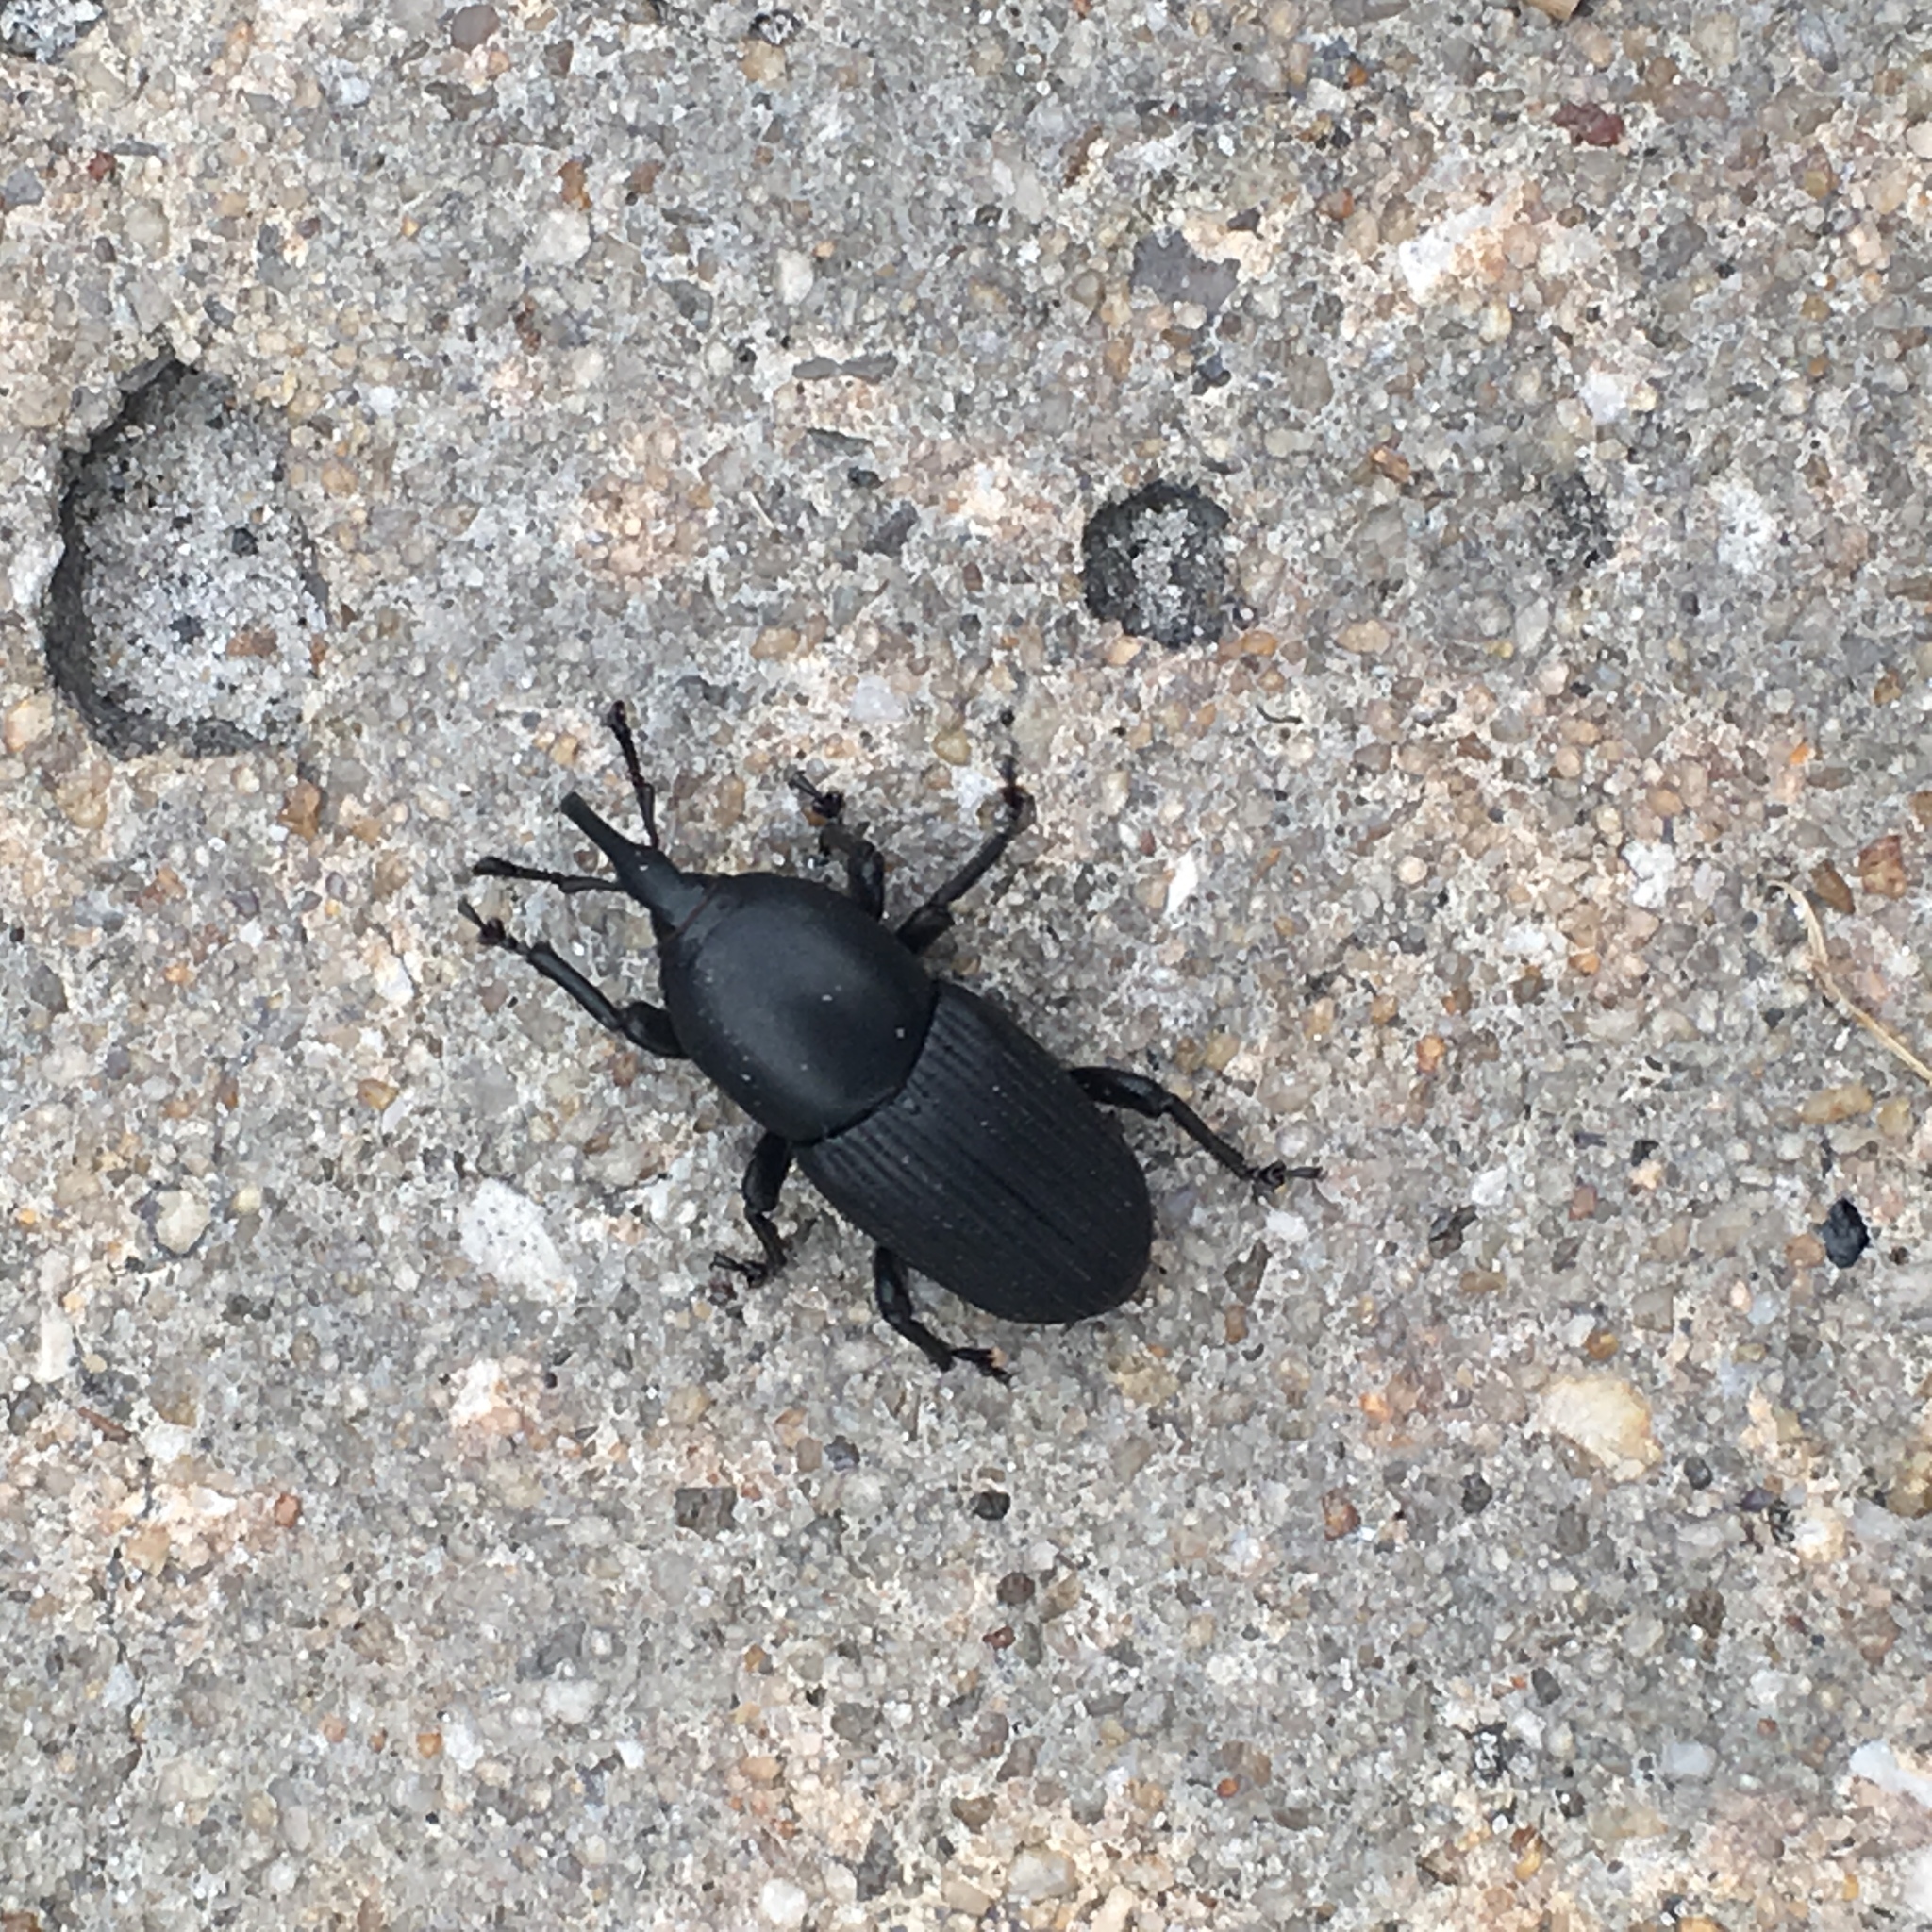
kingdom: Animalia
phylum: Arthropoda
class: Insecta
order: Coleoptera
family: Dryophthoridae
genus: Scyphophorus
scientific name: Scyphophorus acupunctatus
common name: Weevil
